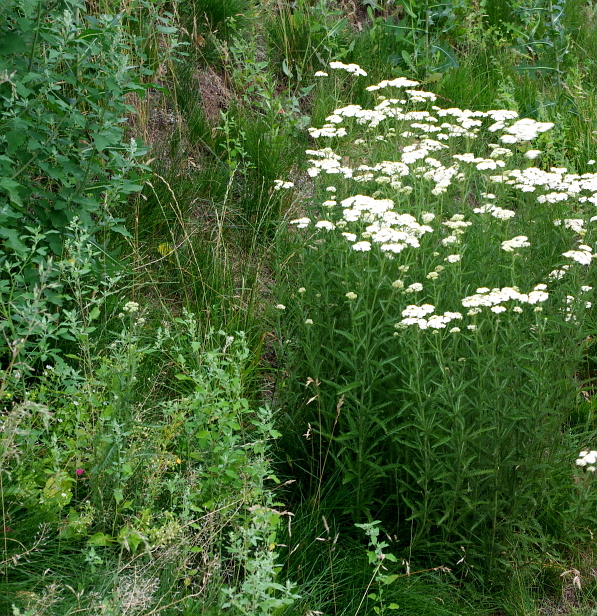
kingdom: Plantae
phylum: Tracheophyta
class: Magnoliopsida
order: Asterales
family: Asteraceae
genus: Achillea
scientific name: Achillea millefolium
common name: Yarrow
